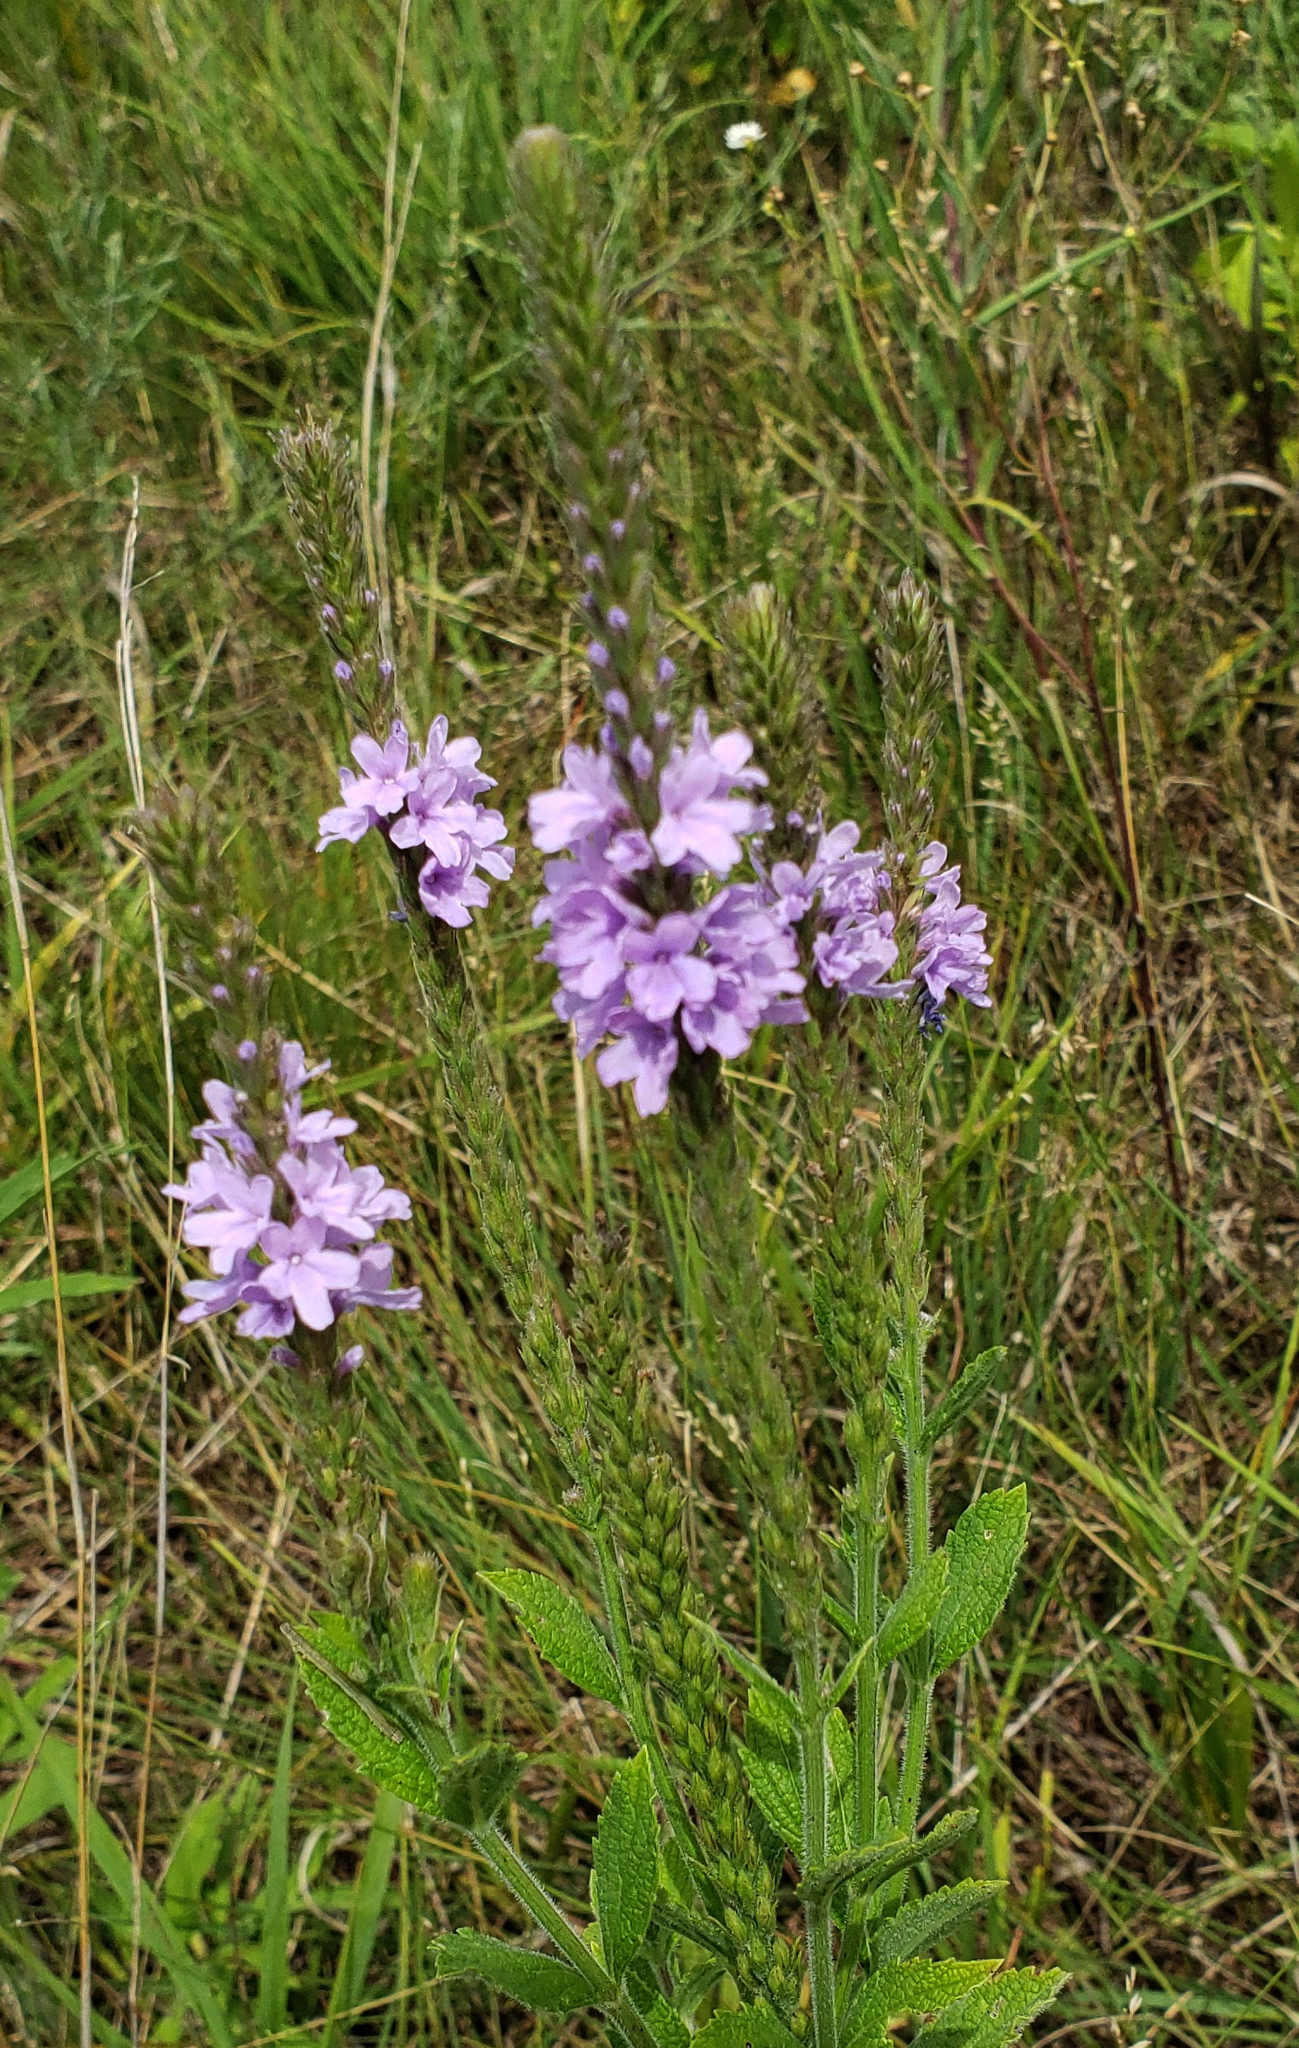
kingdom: Plantae
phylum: Tracheophyta
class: Magnoliopsida
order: Lamiales
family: Verbenaceae
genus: Verbena
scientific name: Verbena stricta
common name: Hoary vervain
